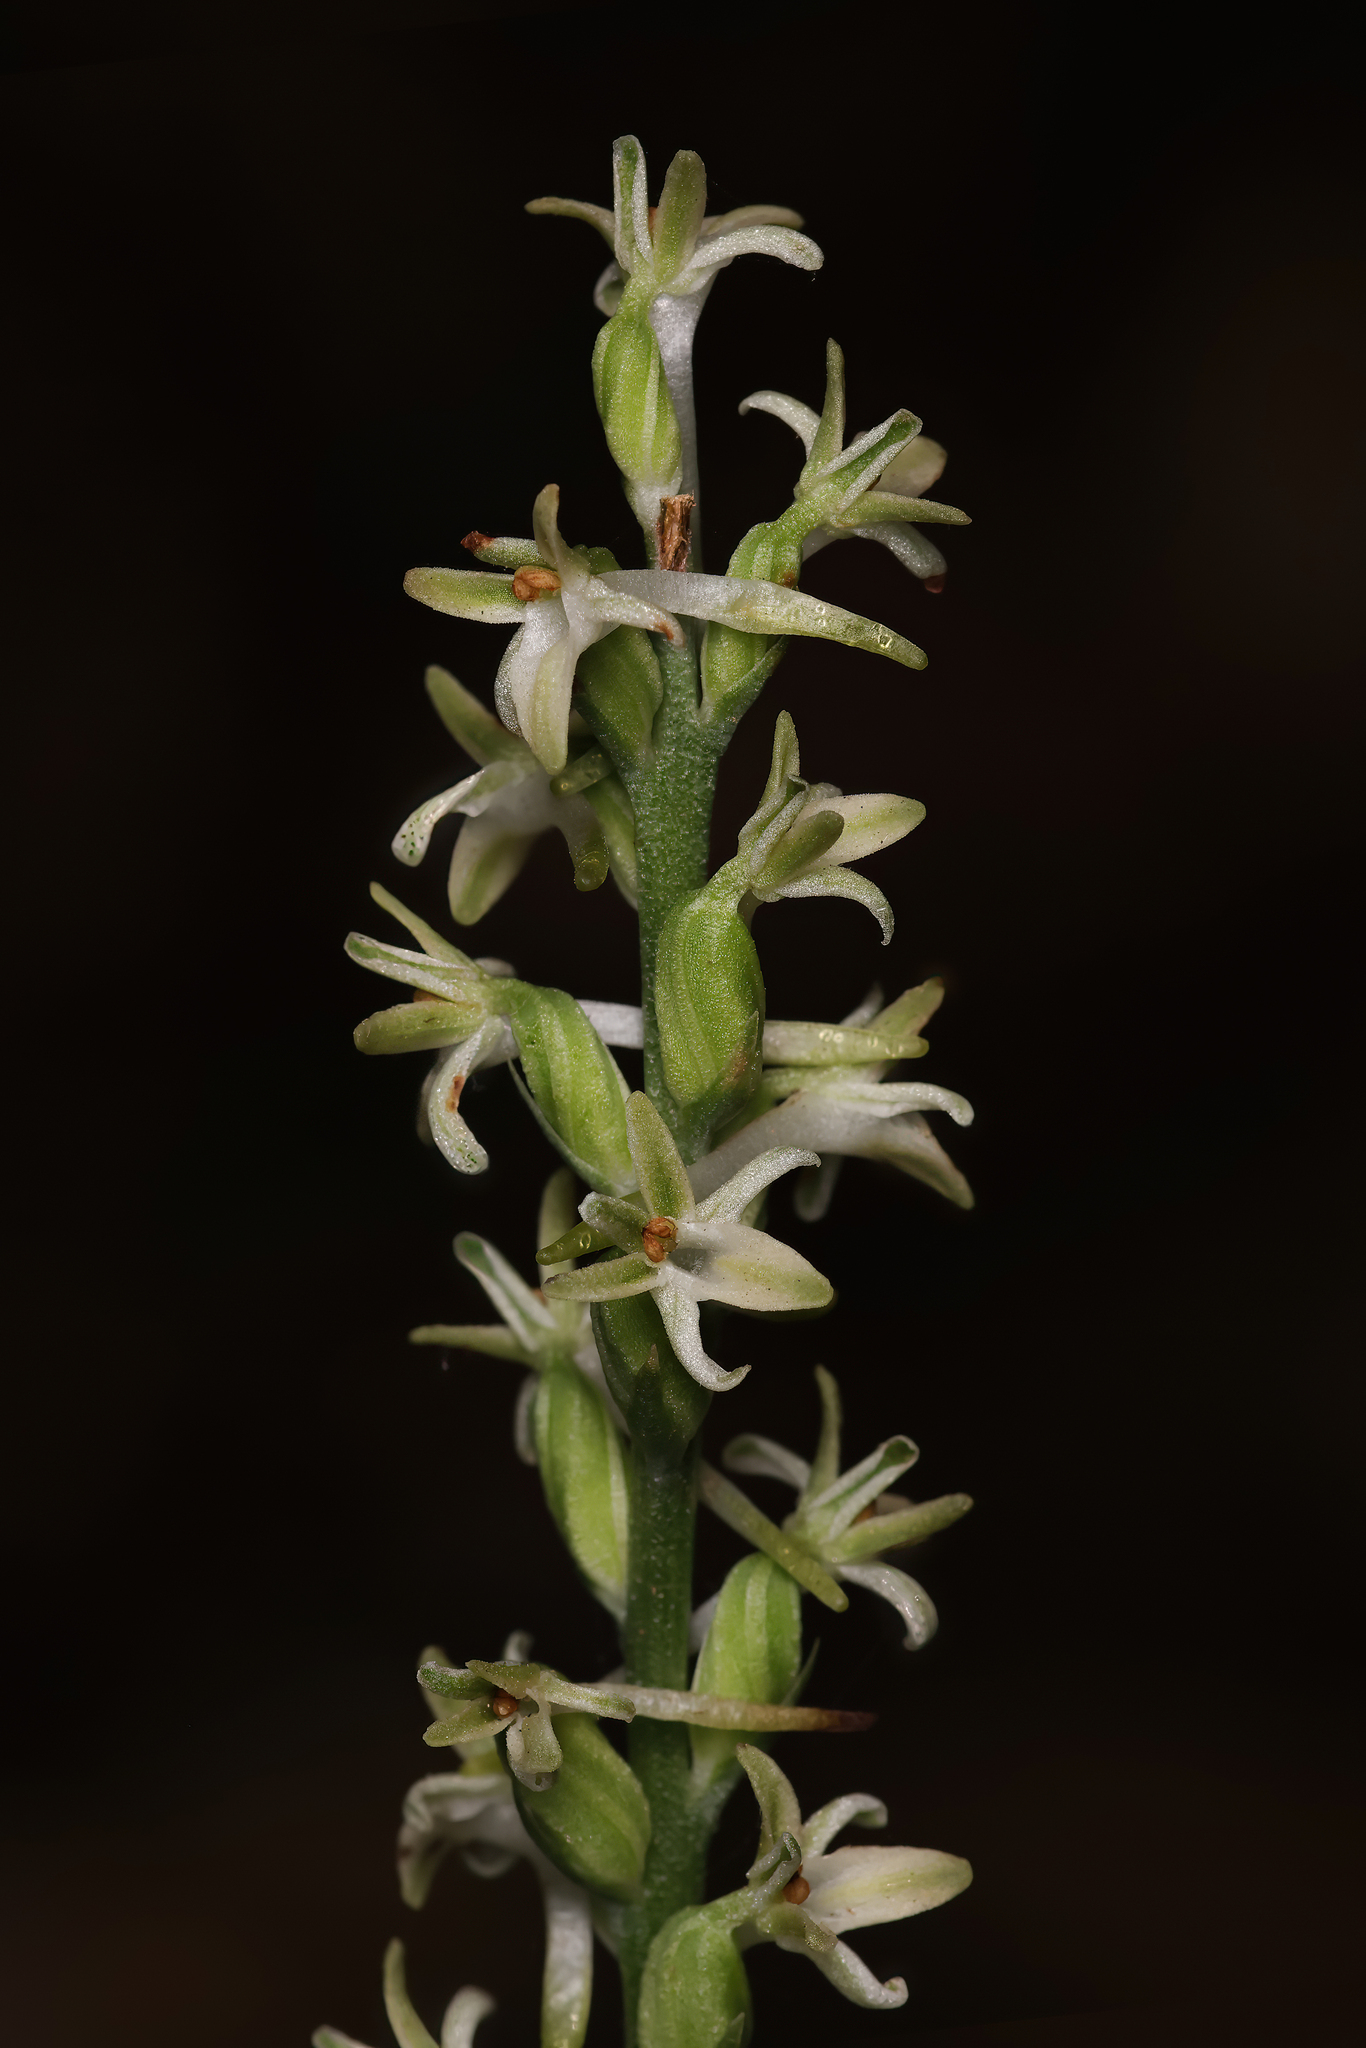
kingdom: Plantae
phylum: Tracheophyta
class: Liliopsida
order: Asparagales
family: Orchidaceae
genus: Platanthera
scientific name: Platanthera transversa
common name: Royal rein orchid
